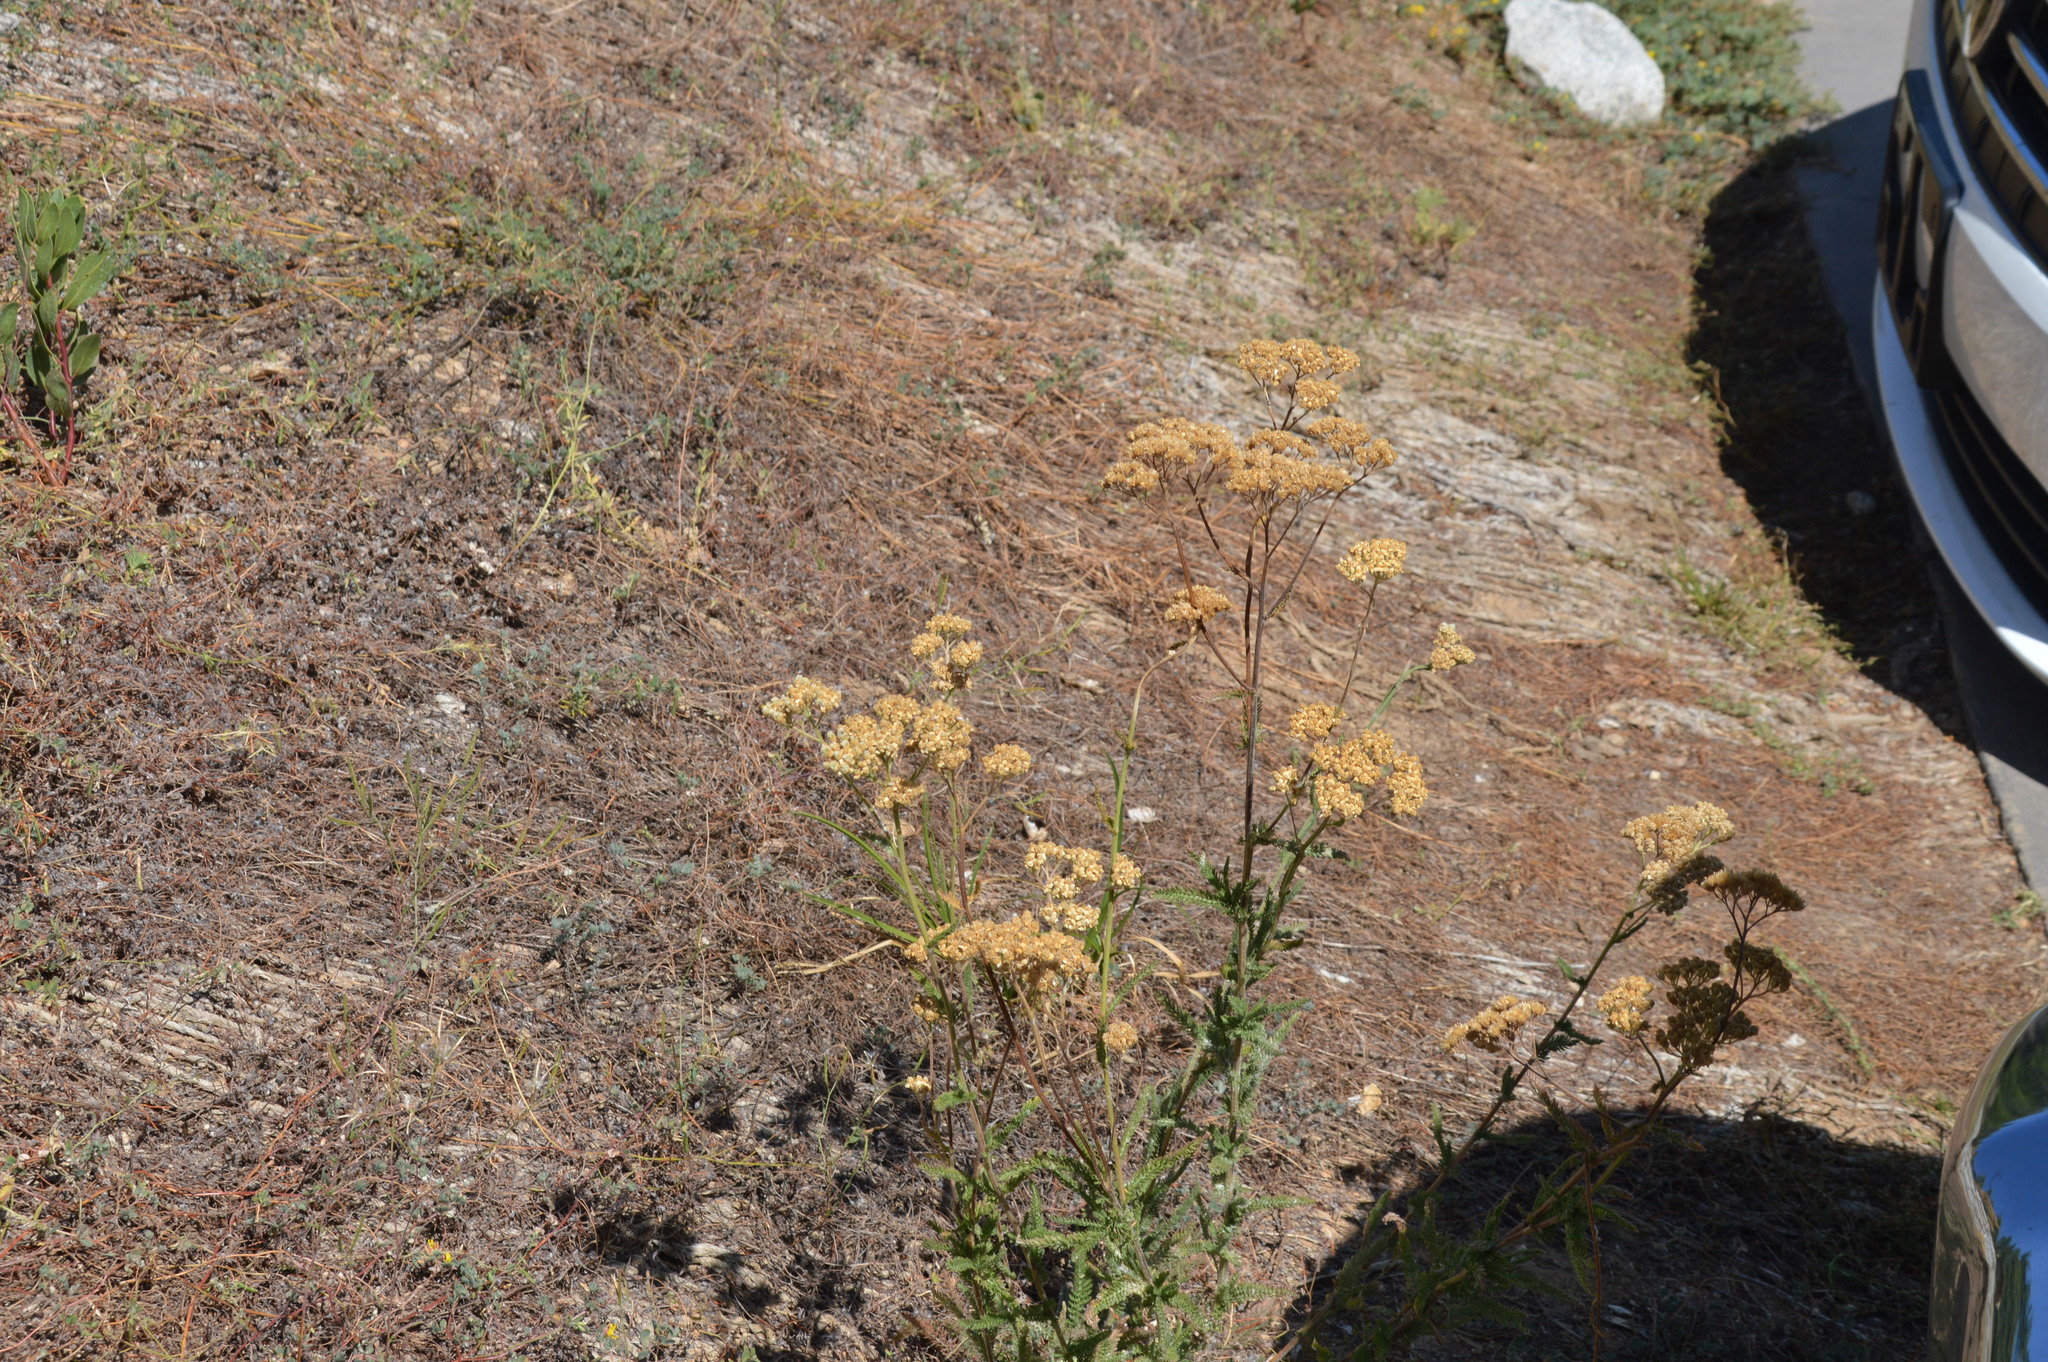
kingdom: Plantae
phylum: Tracheophyta
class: Magnoliopsida
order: Asterales
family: Asteraceae
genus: Achillea
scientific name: Achillea millefolium
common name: Yarrow
